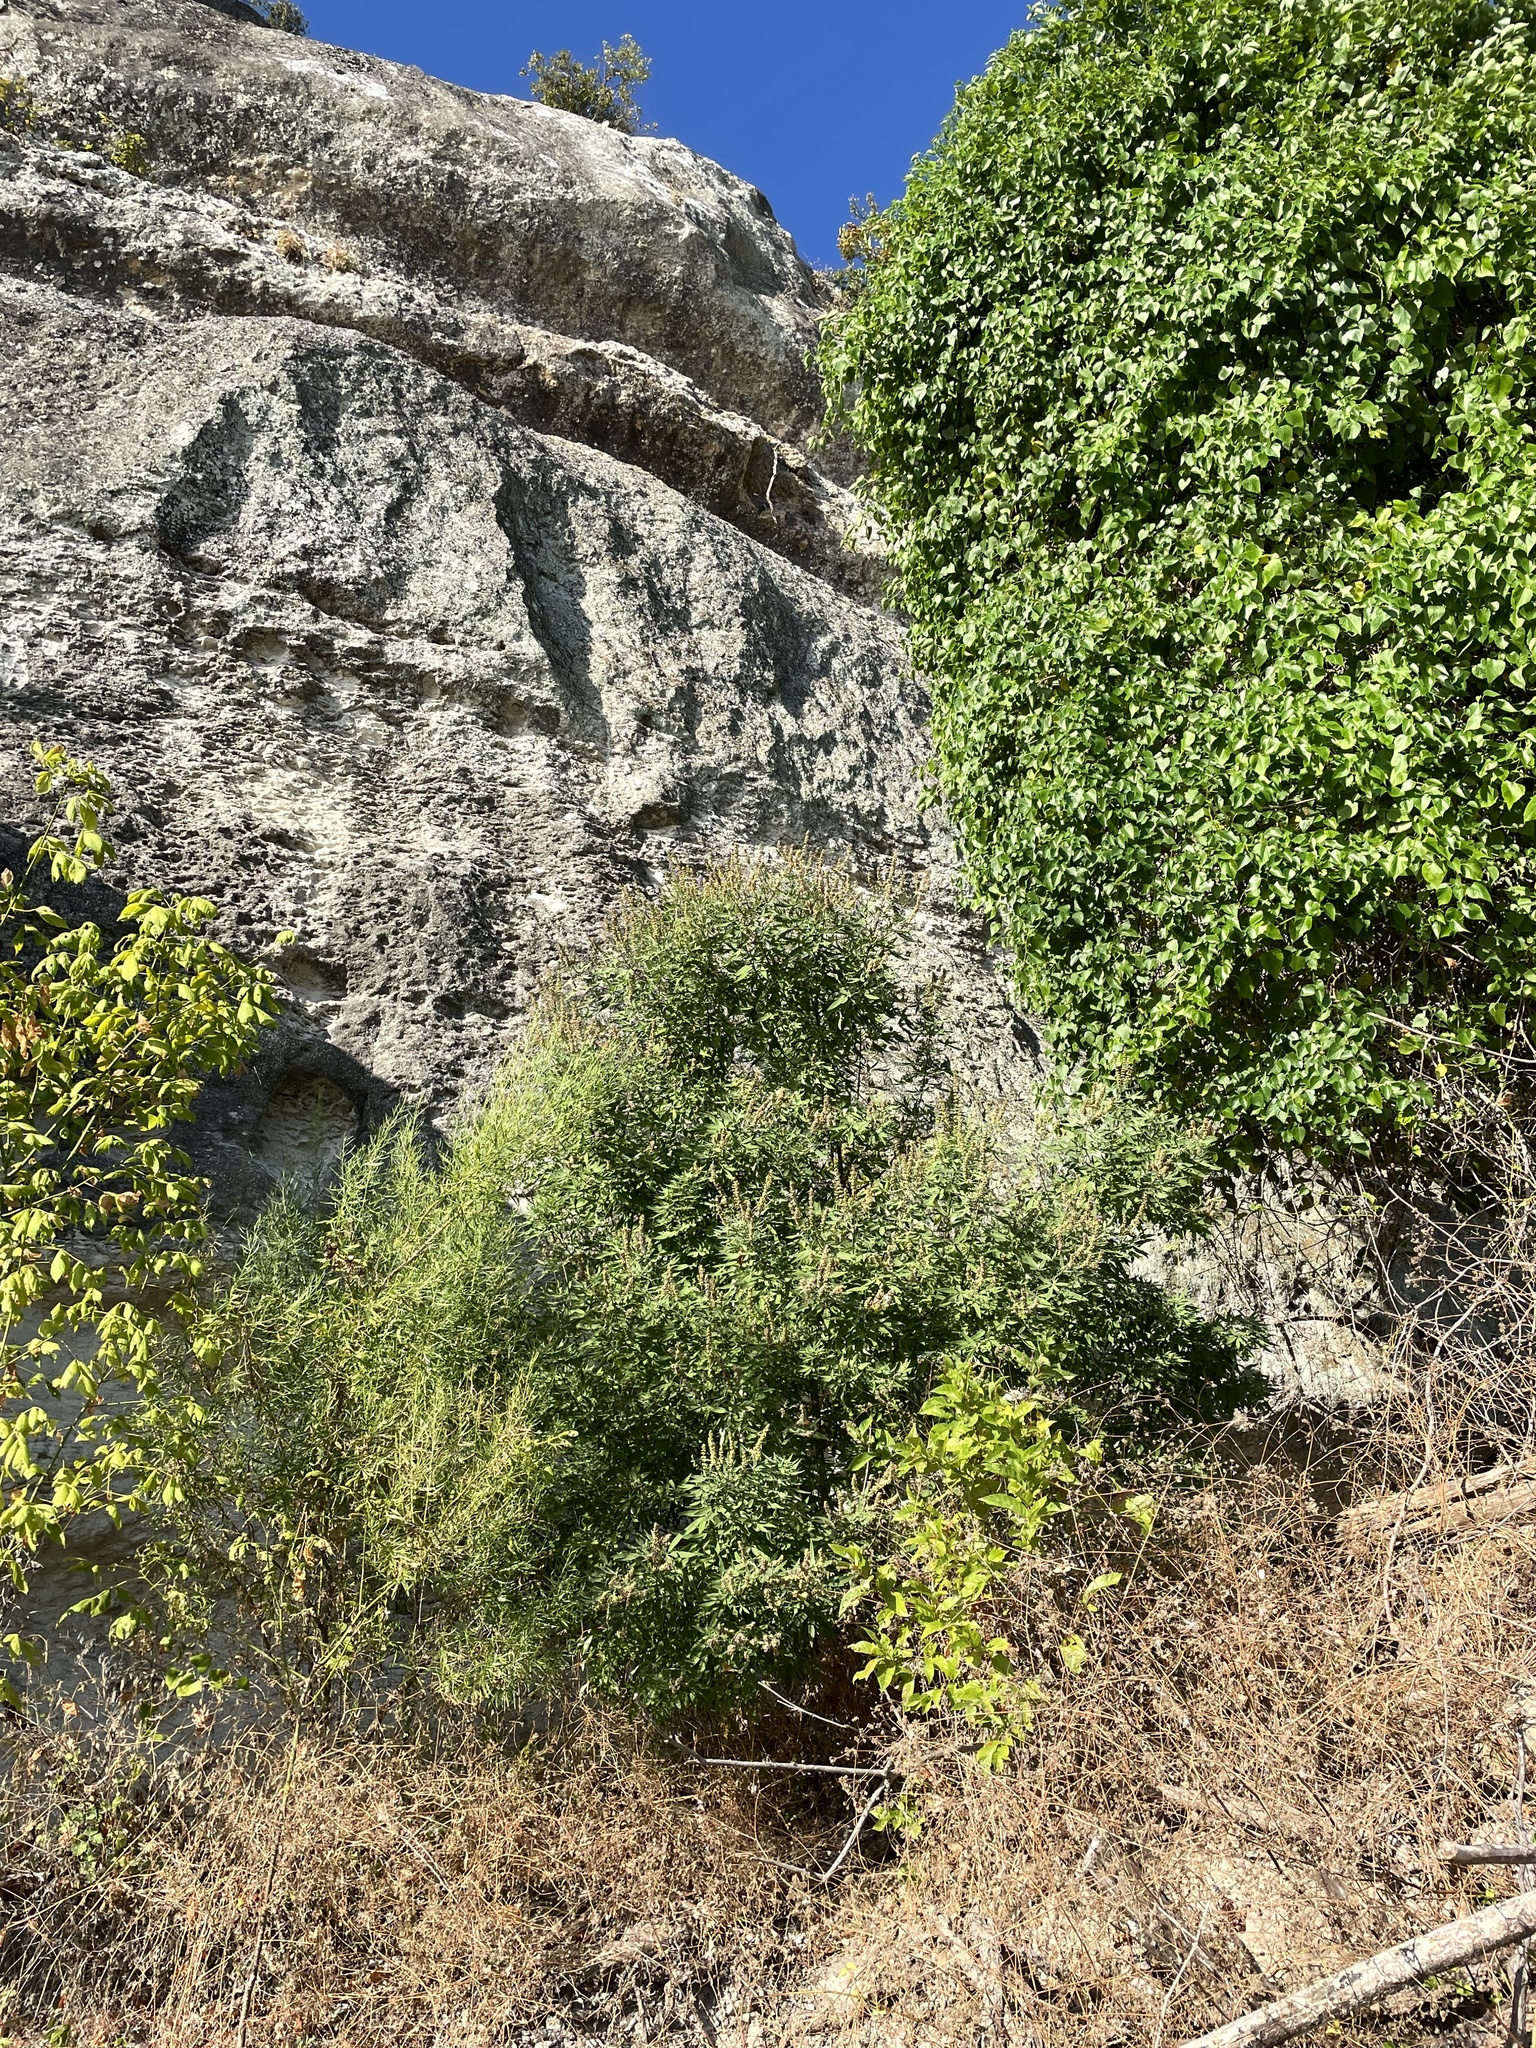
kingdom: Plantae
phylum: Tracheophyta
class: Magnoliopsida
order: Lamiales
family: Lamiaceae
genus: Vitex
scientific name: Vitex agnus-castus
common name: Chasteberry
